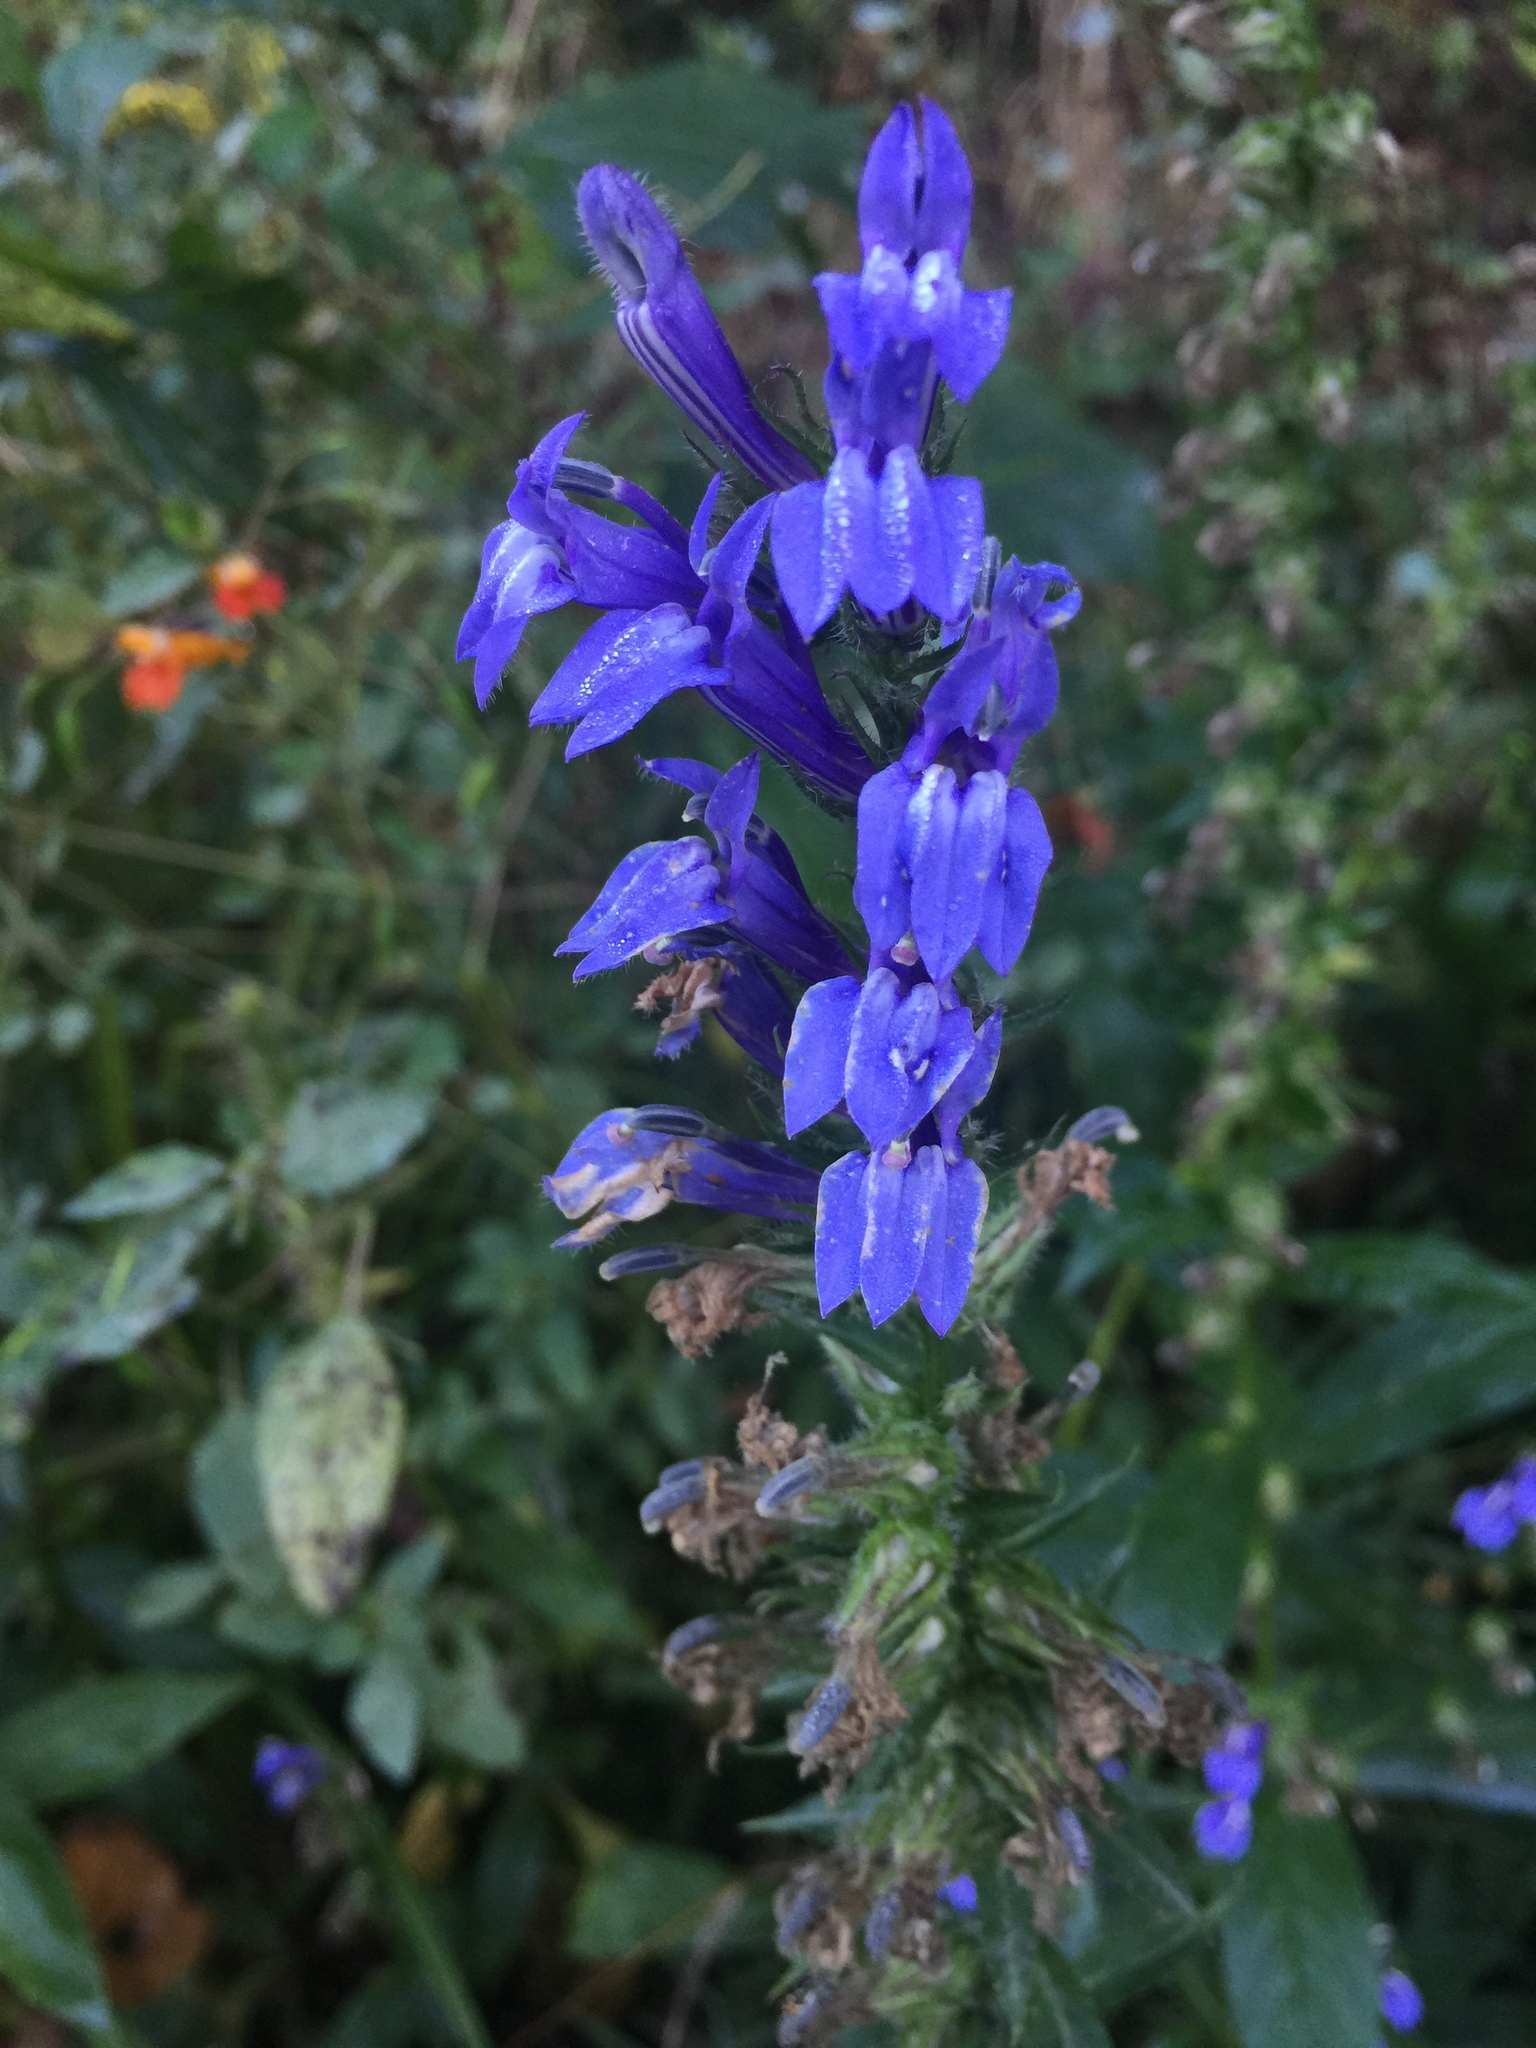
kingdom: Plantae
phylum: Tracheophyta
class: Magnoliopsida
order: Asterales
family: Campanulaceae
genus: Lobelia
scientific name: Lobelia siphilitica
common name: Great lobelia
